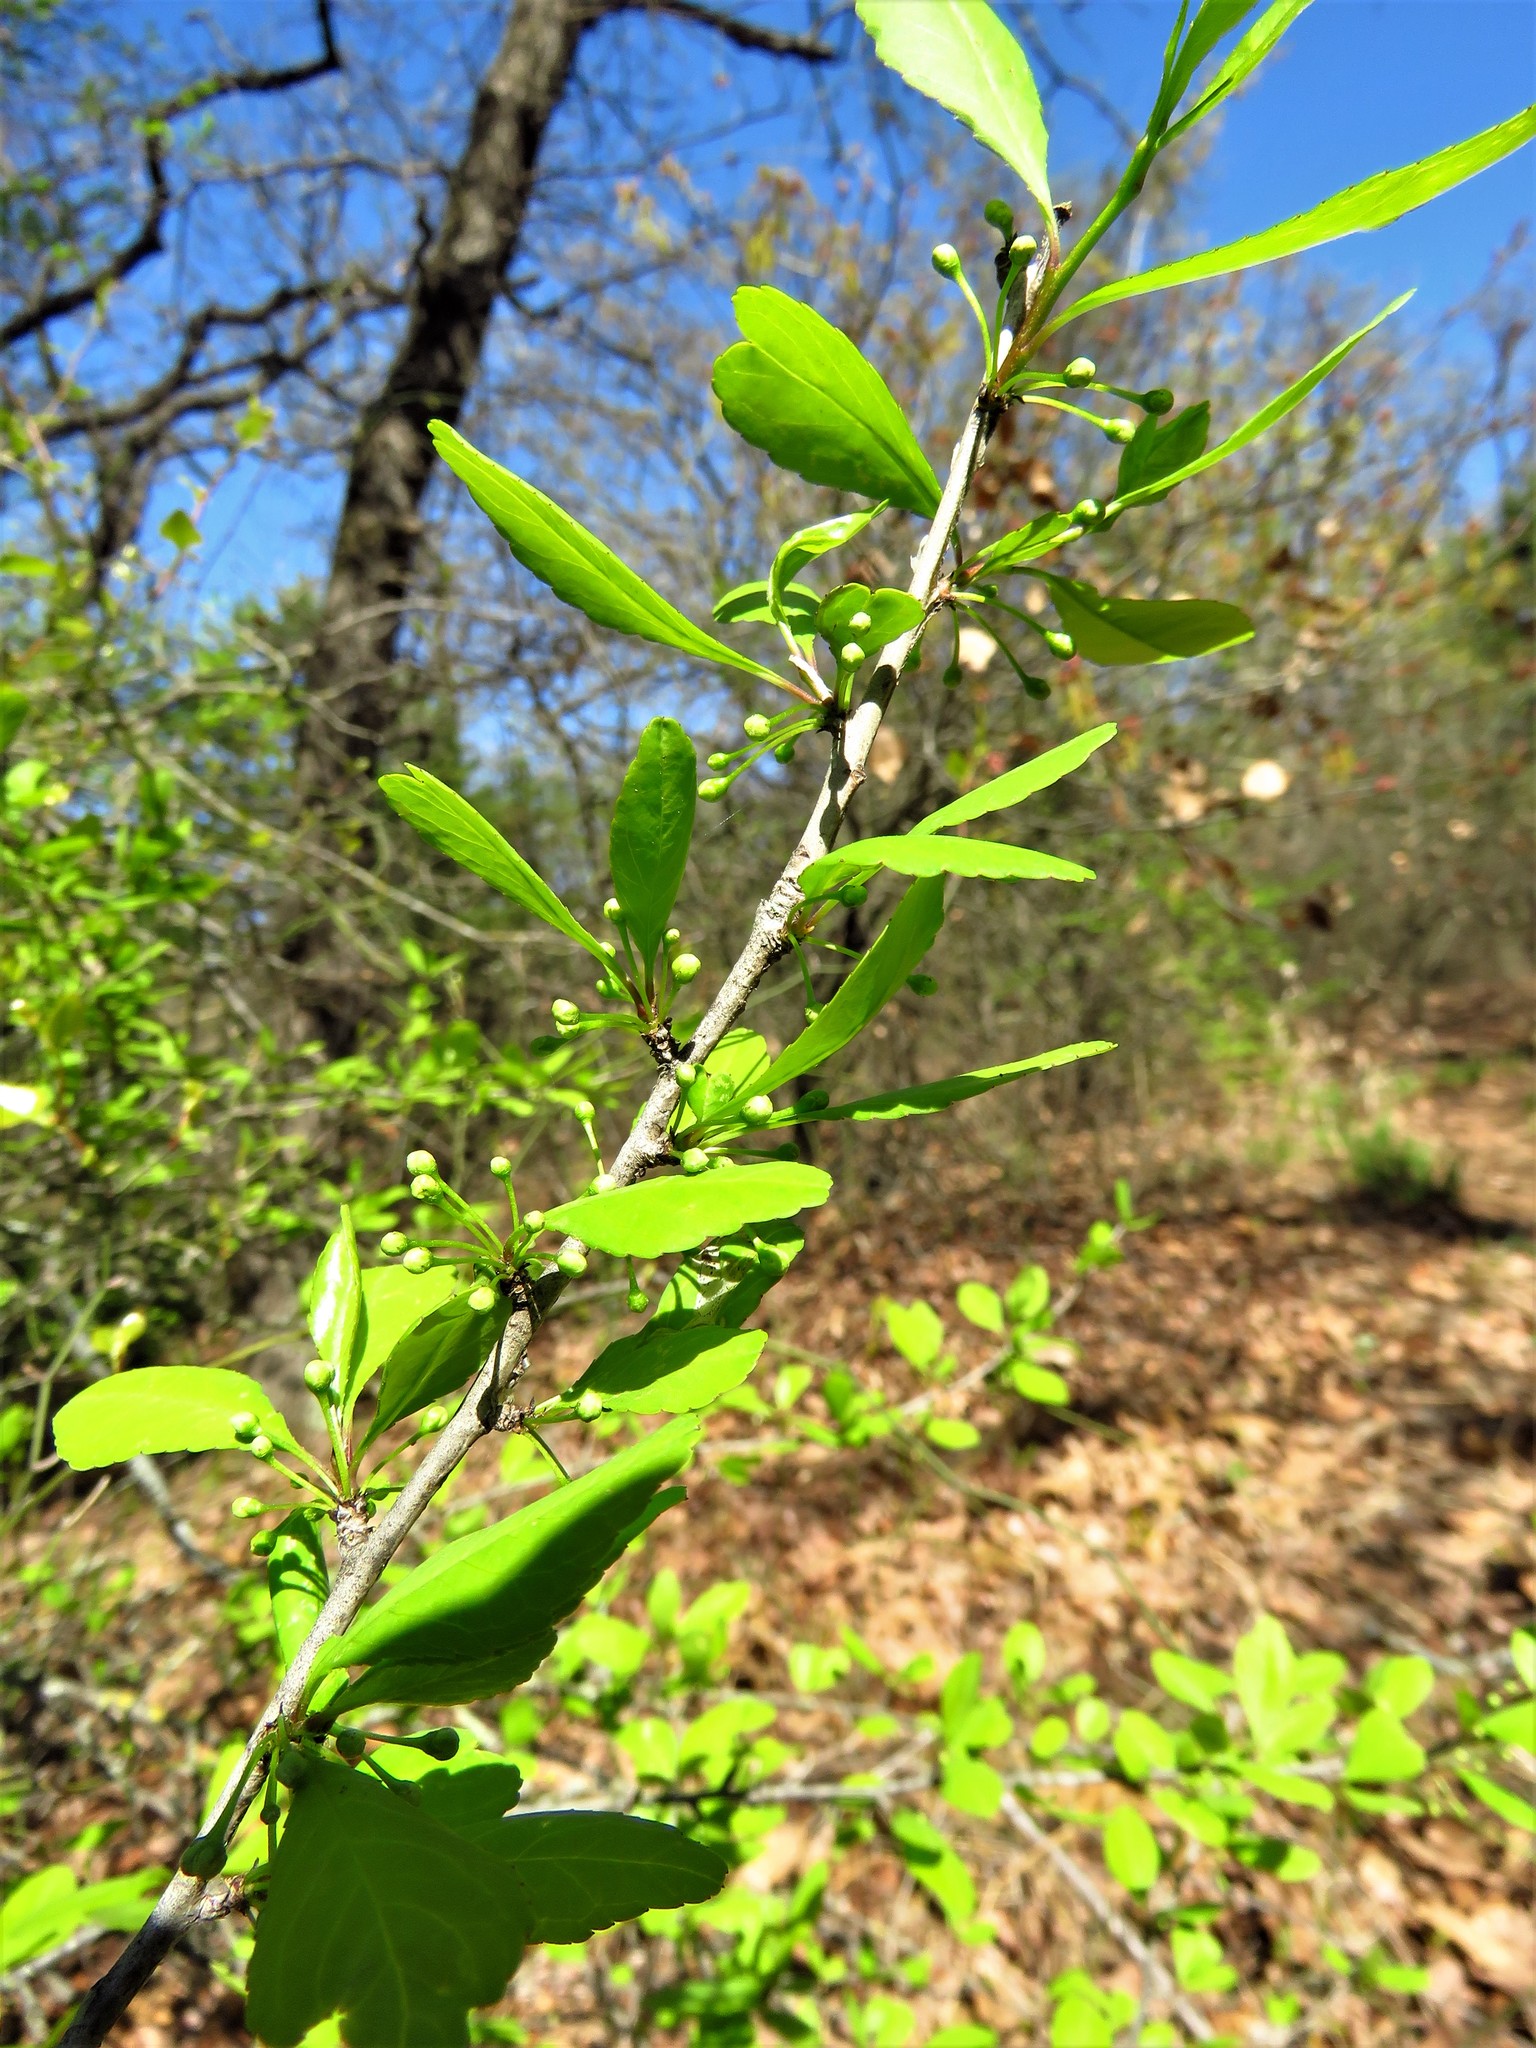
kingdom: Plantae
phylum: Tracheophyta
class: Magnoliopsida
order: Aquifoliales
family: Aquifoliaceae
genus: Ilex
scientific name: Ilex decidua
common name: Possum-haw
